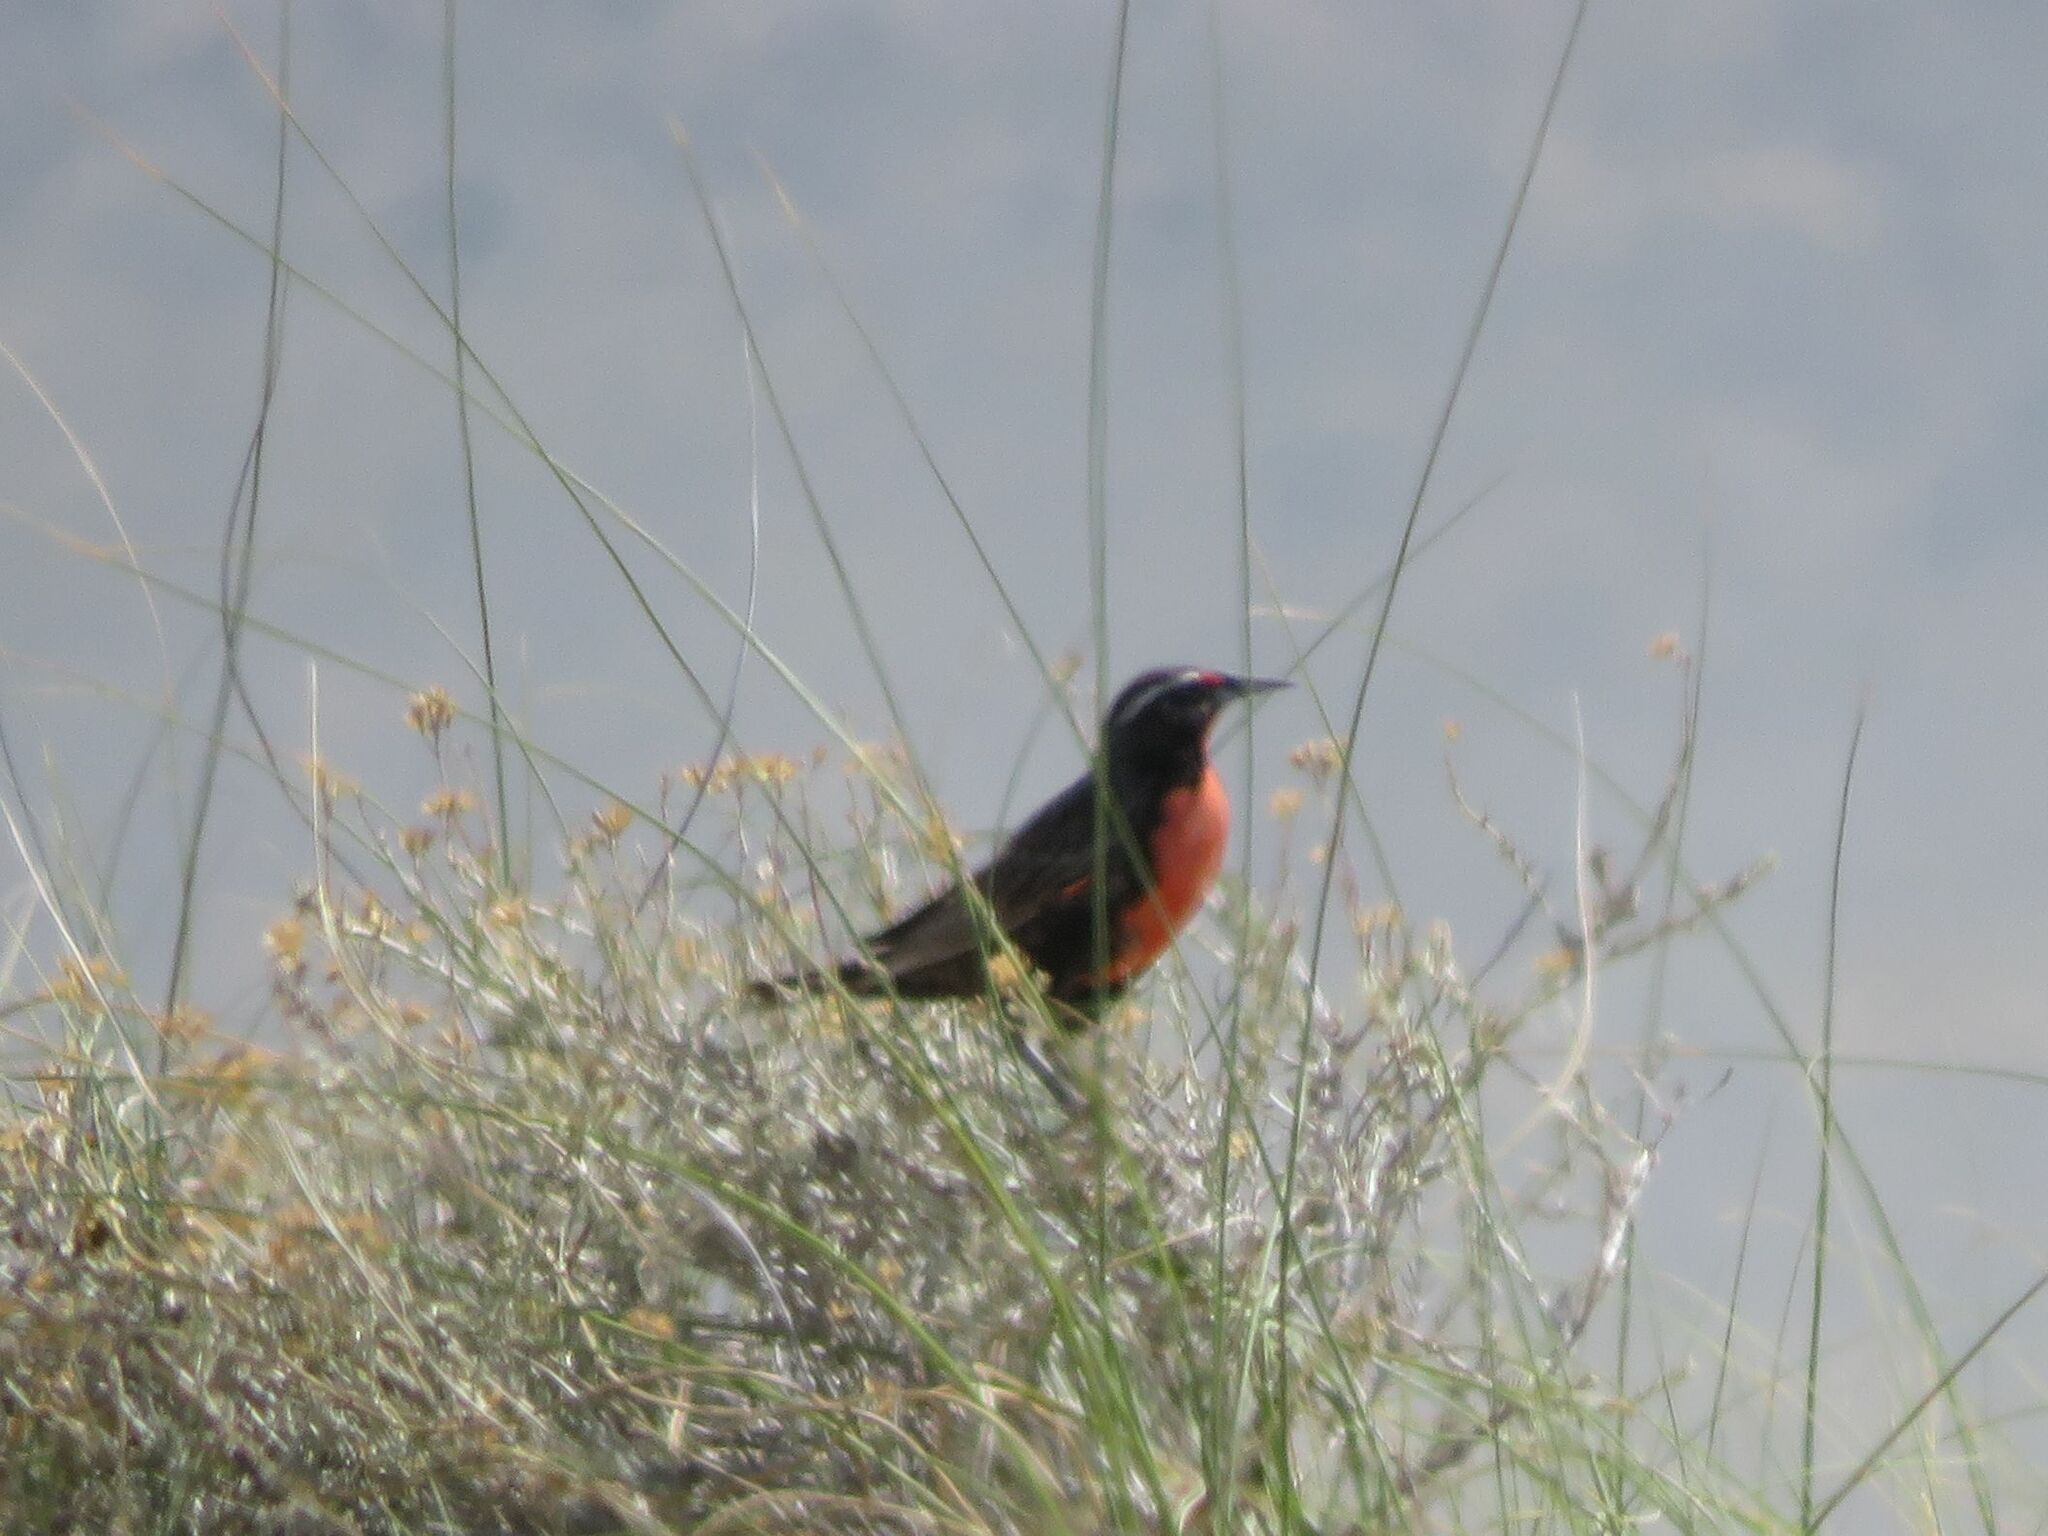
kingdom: Animalia
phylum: Chordata
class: Aves
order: Passeriformes
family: Icteridae
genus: Sturnella
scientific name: Sturnella loyca
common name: Long-tailed meadowlark
